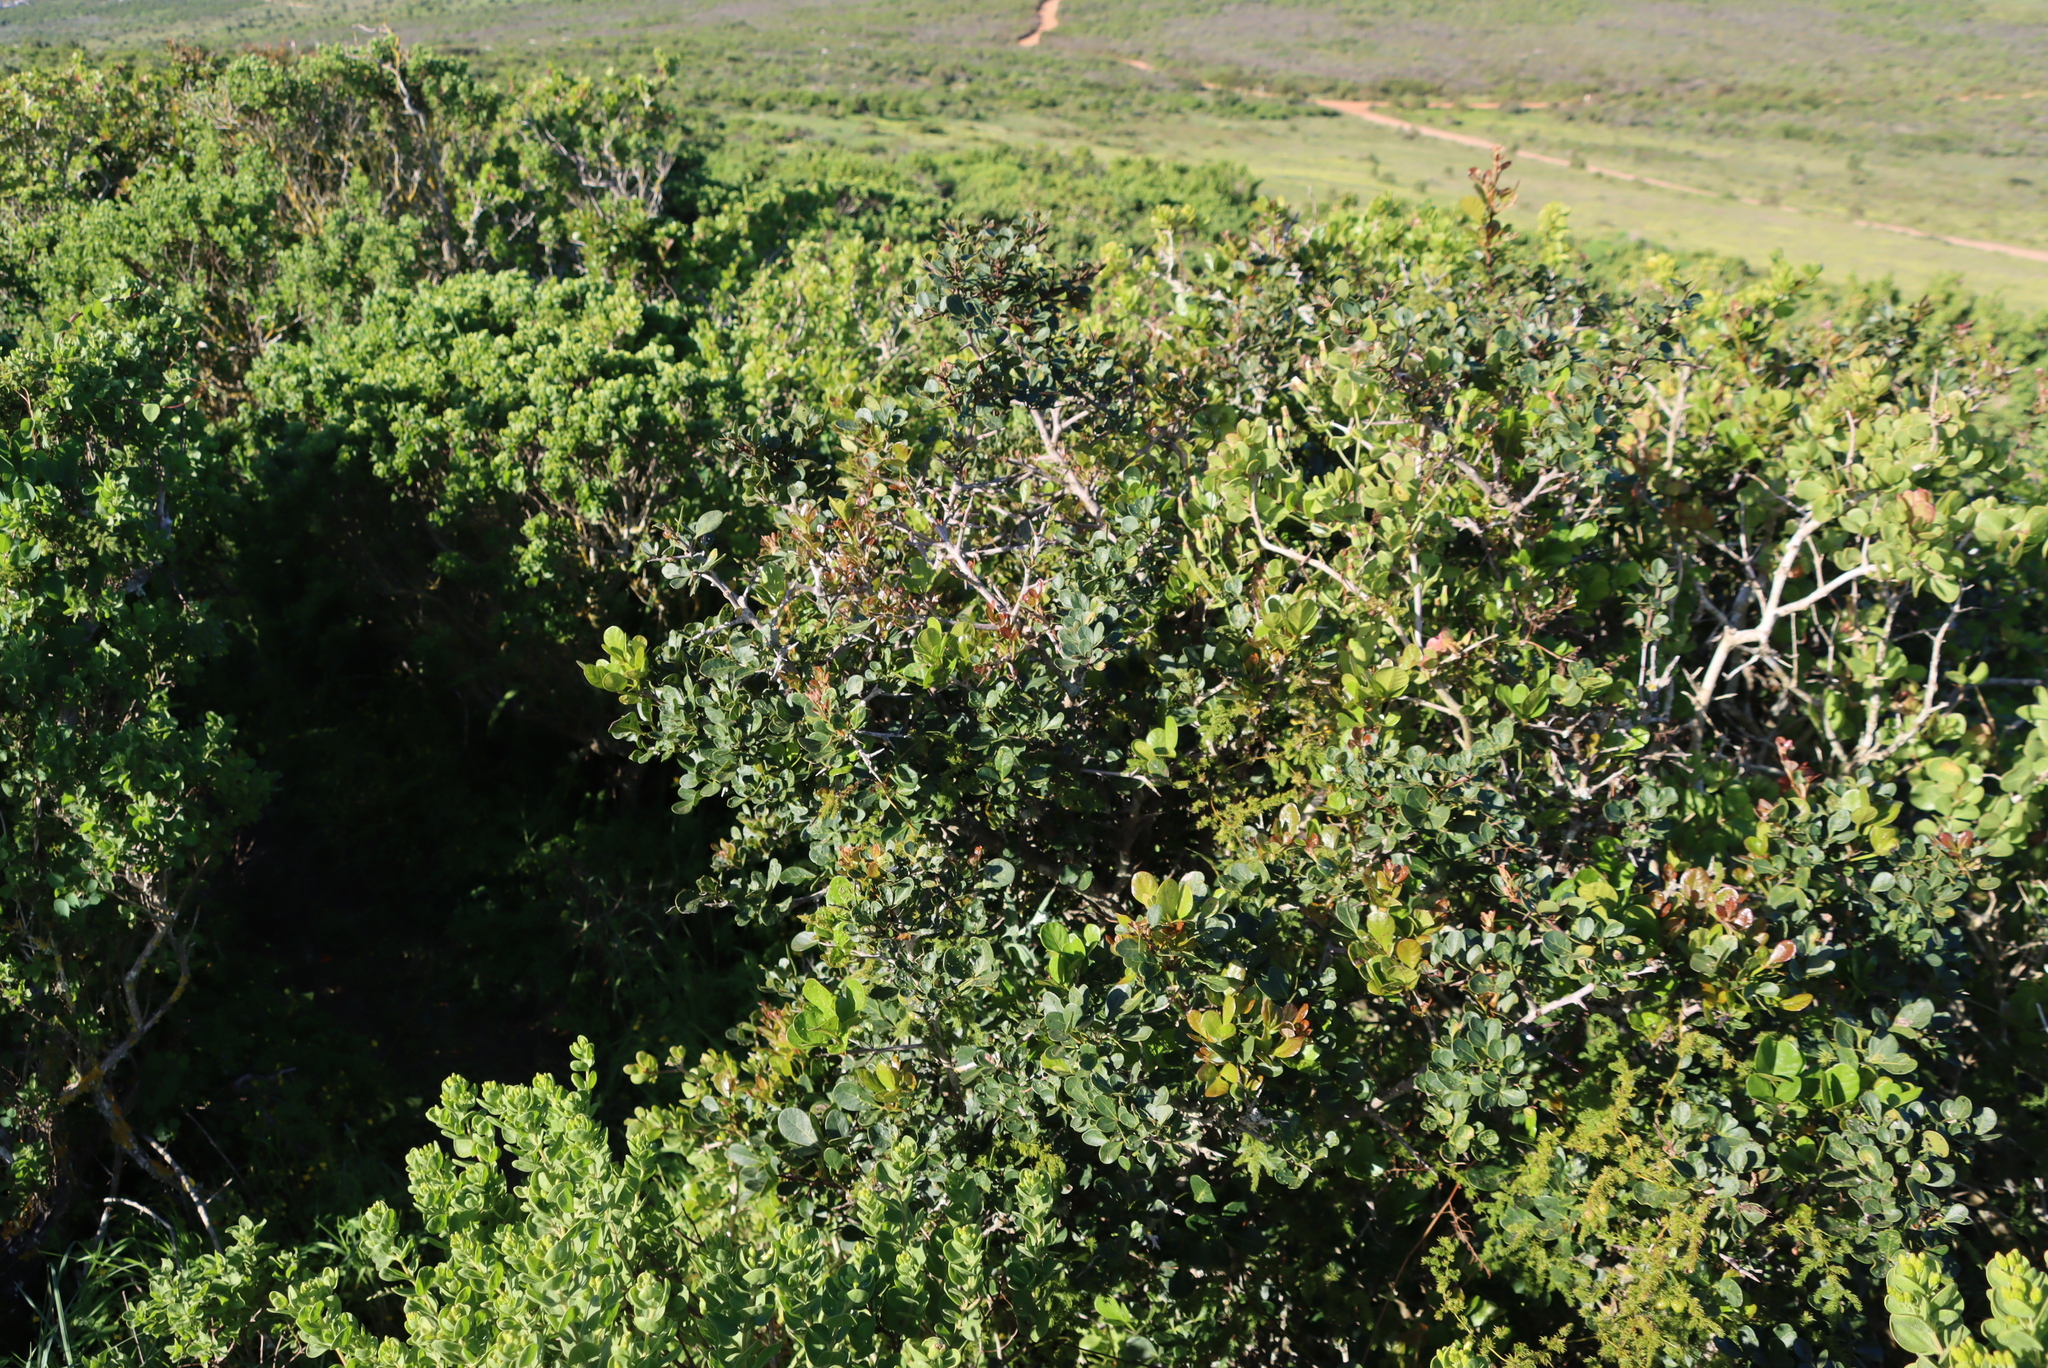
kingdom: Plantae
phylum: Tracheophyta
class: Magnoliopsida
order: Sapindales
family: Anacardiaceae
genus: Searsia
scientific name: Searsia pterota
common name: Winged currant
